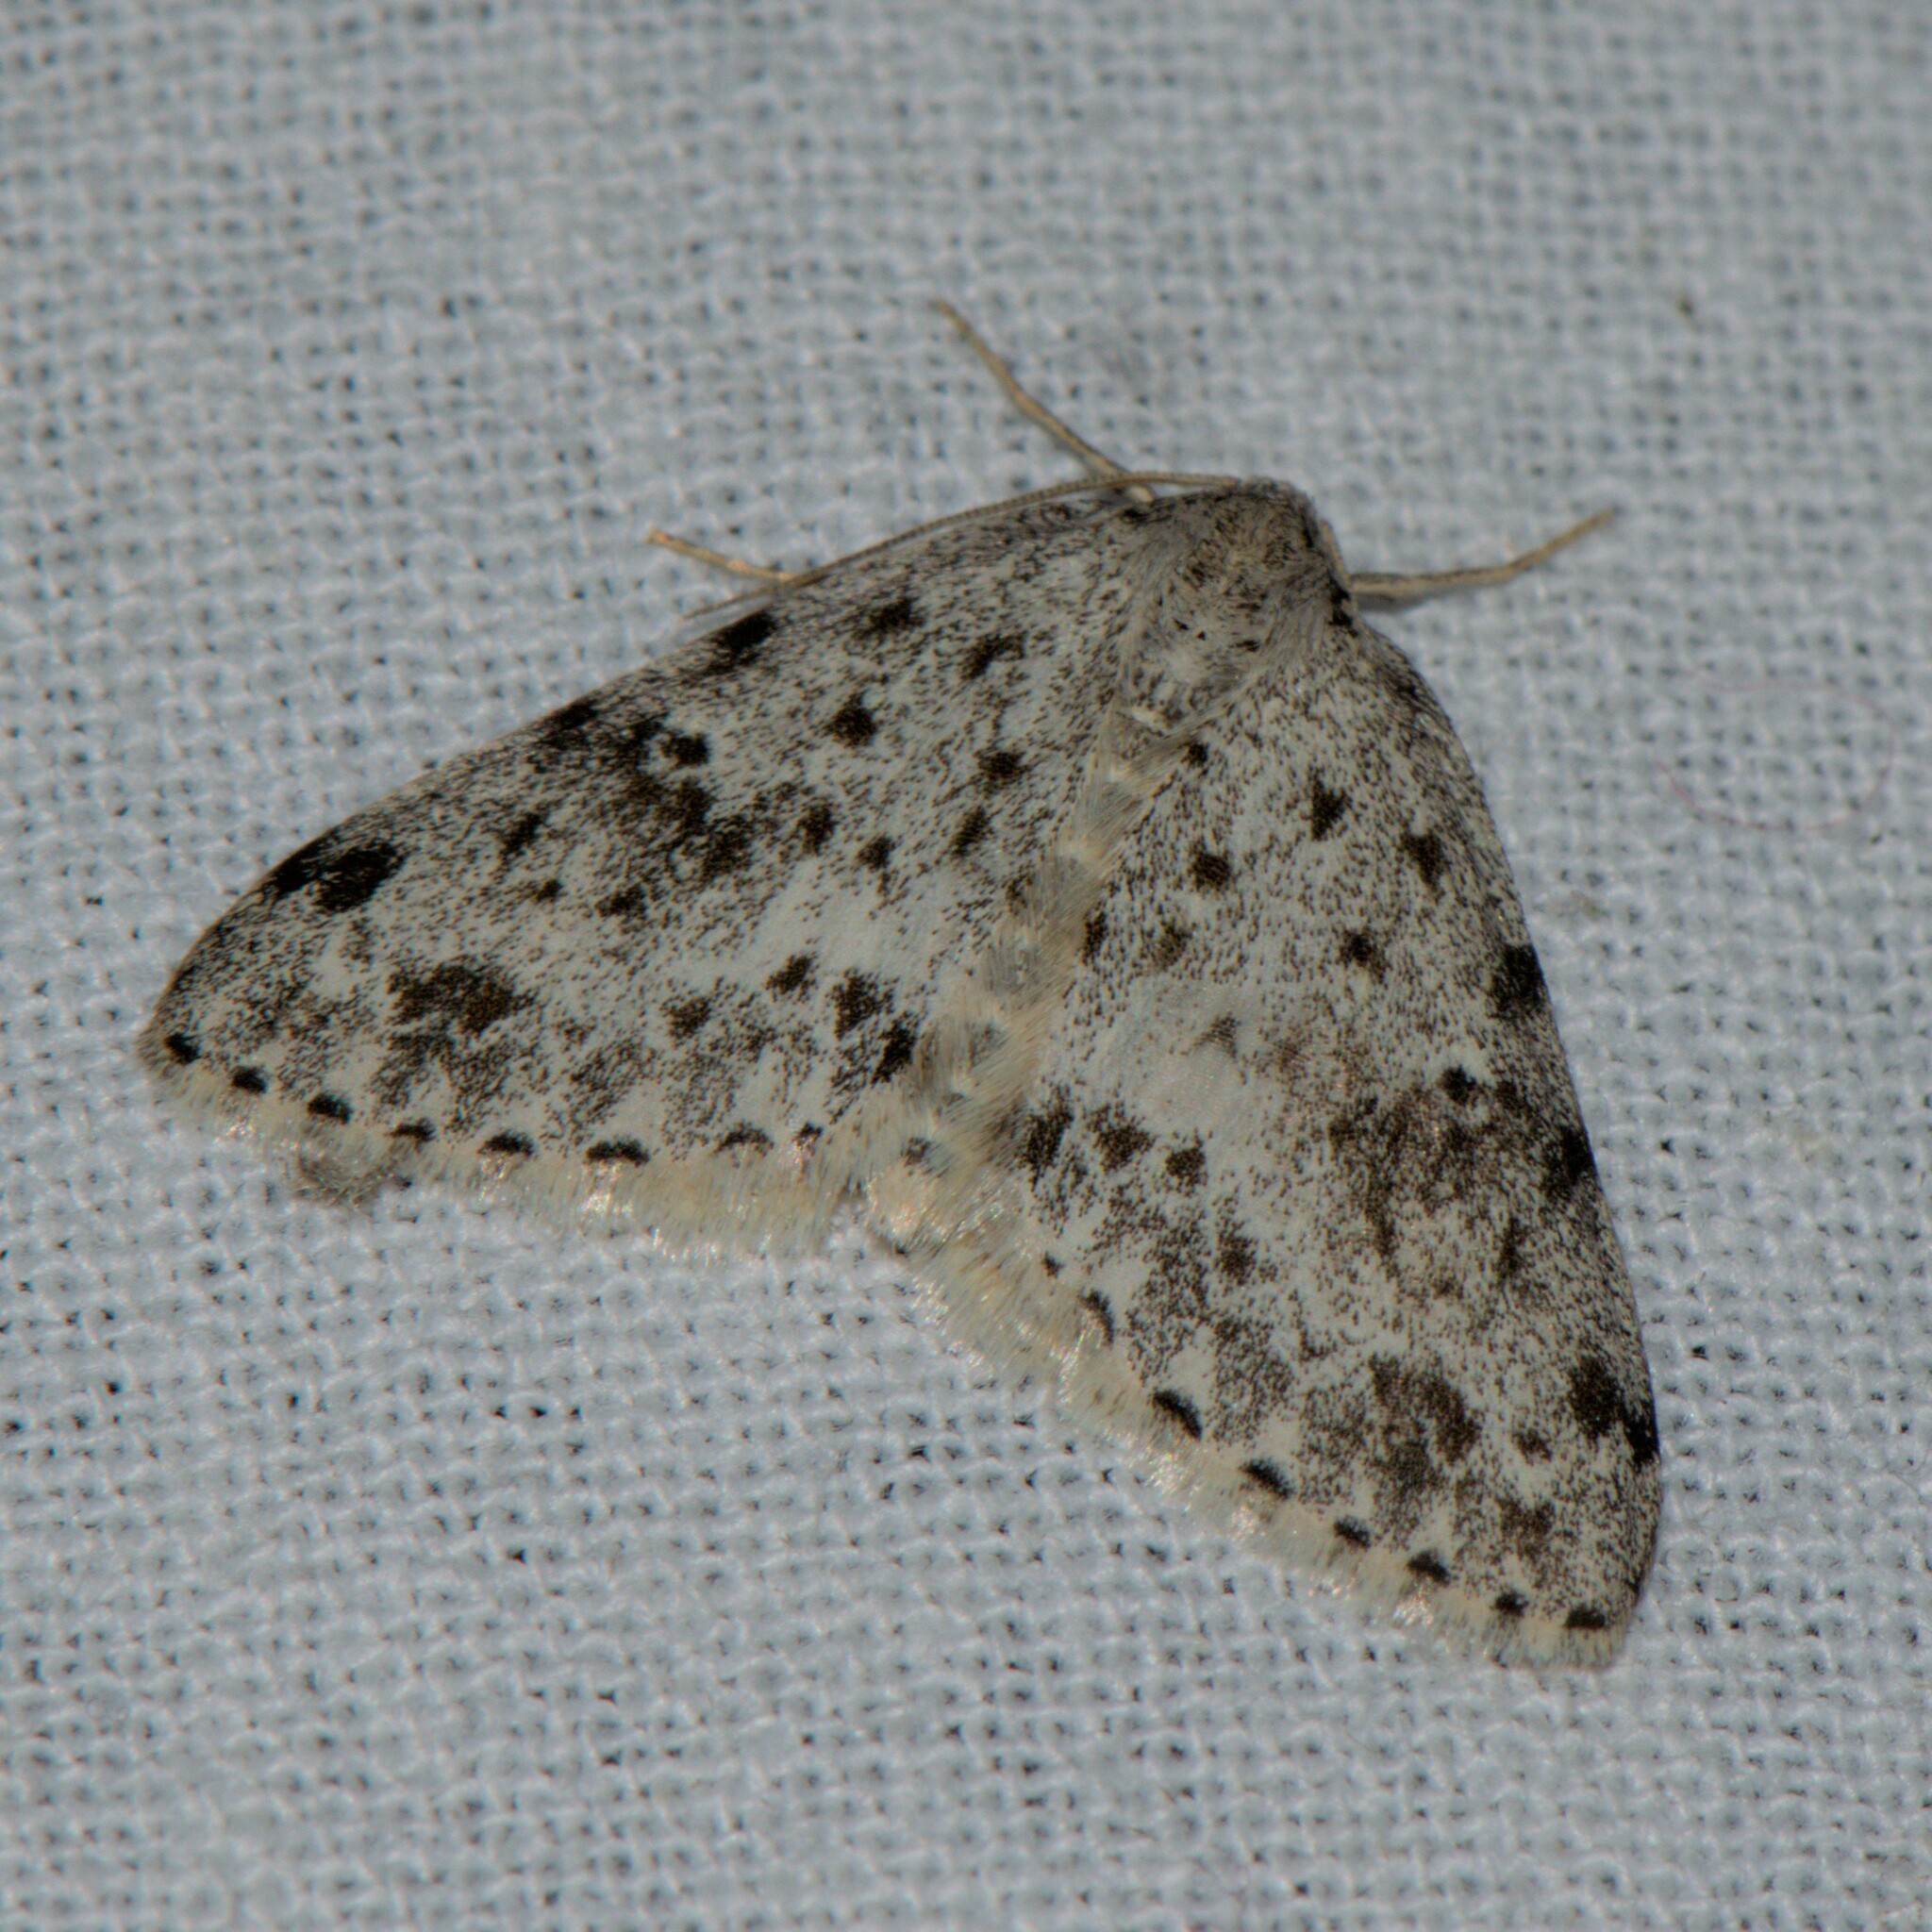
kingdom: Animalia
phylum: Arthropoda
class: Insecta
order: Lepidoptera
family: Geometridae
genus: Naxidia
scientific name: Naxidia irrorata
